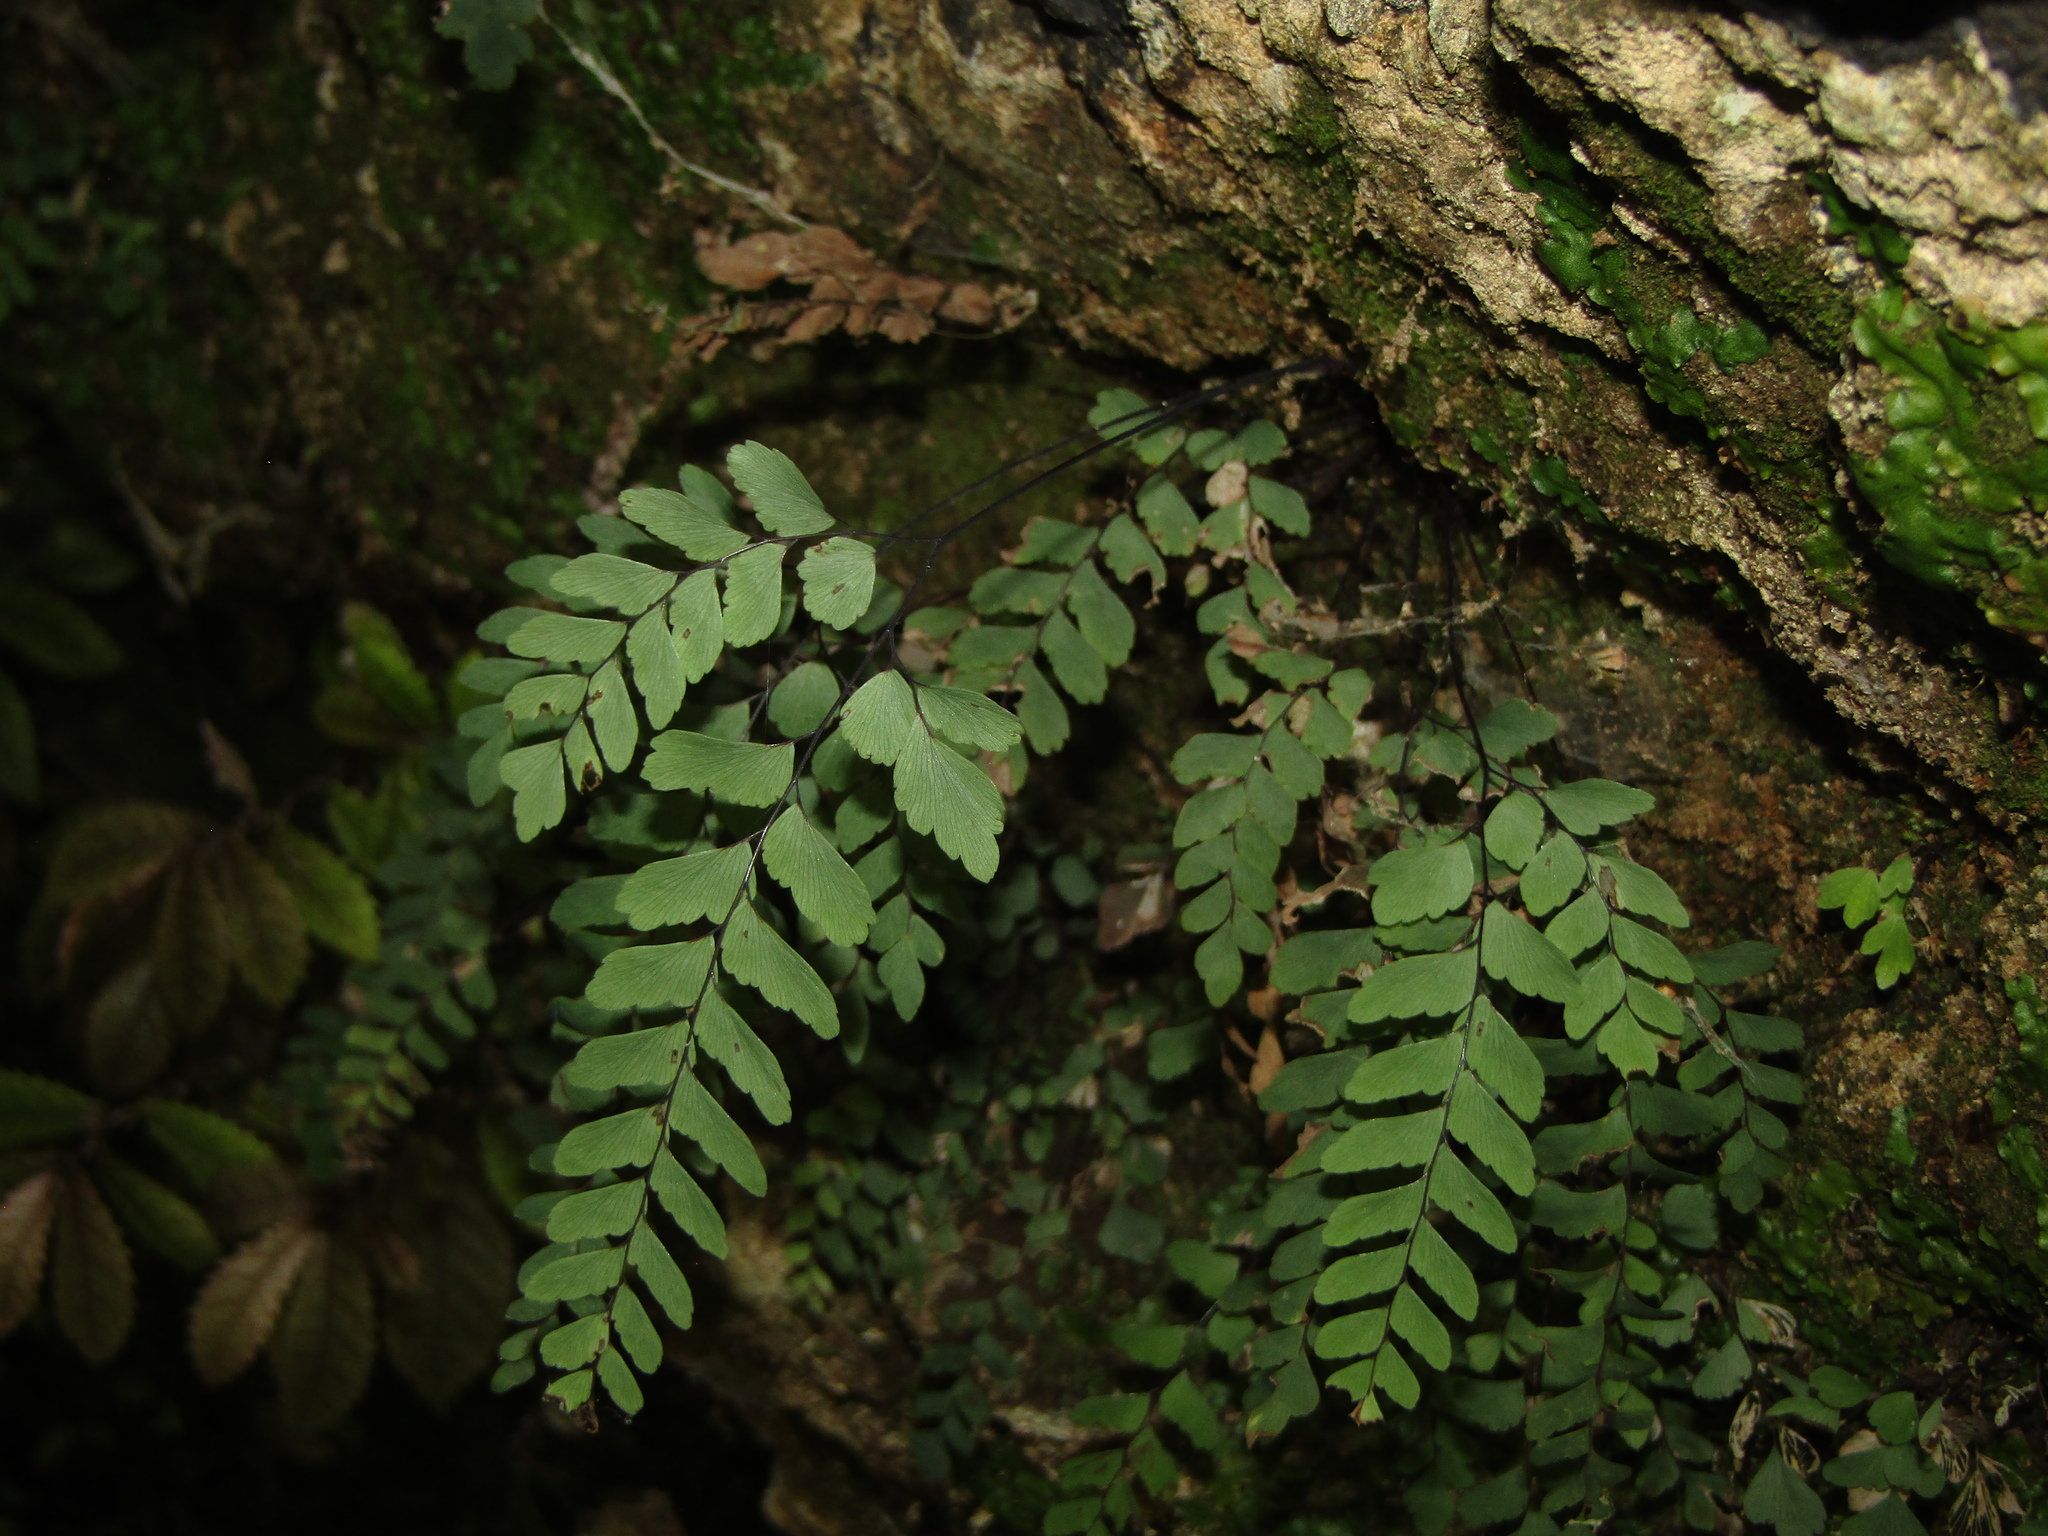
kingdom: Plantae
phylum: Tracheophyta
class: Polypodiopsida
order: Polypodiales
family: Pteridaceae
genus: Adiantum
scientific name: Adiantum cunninghamii
